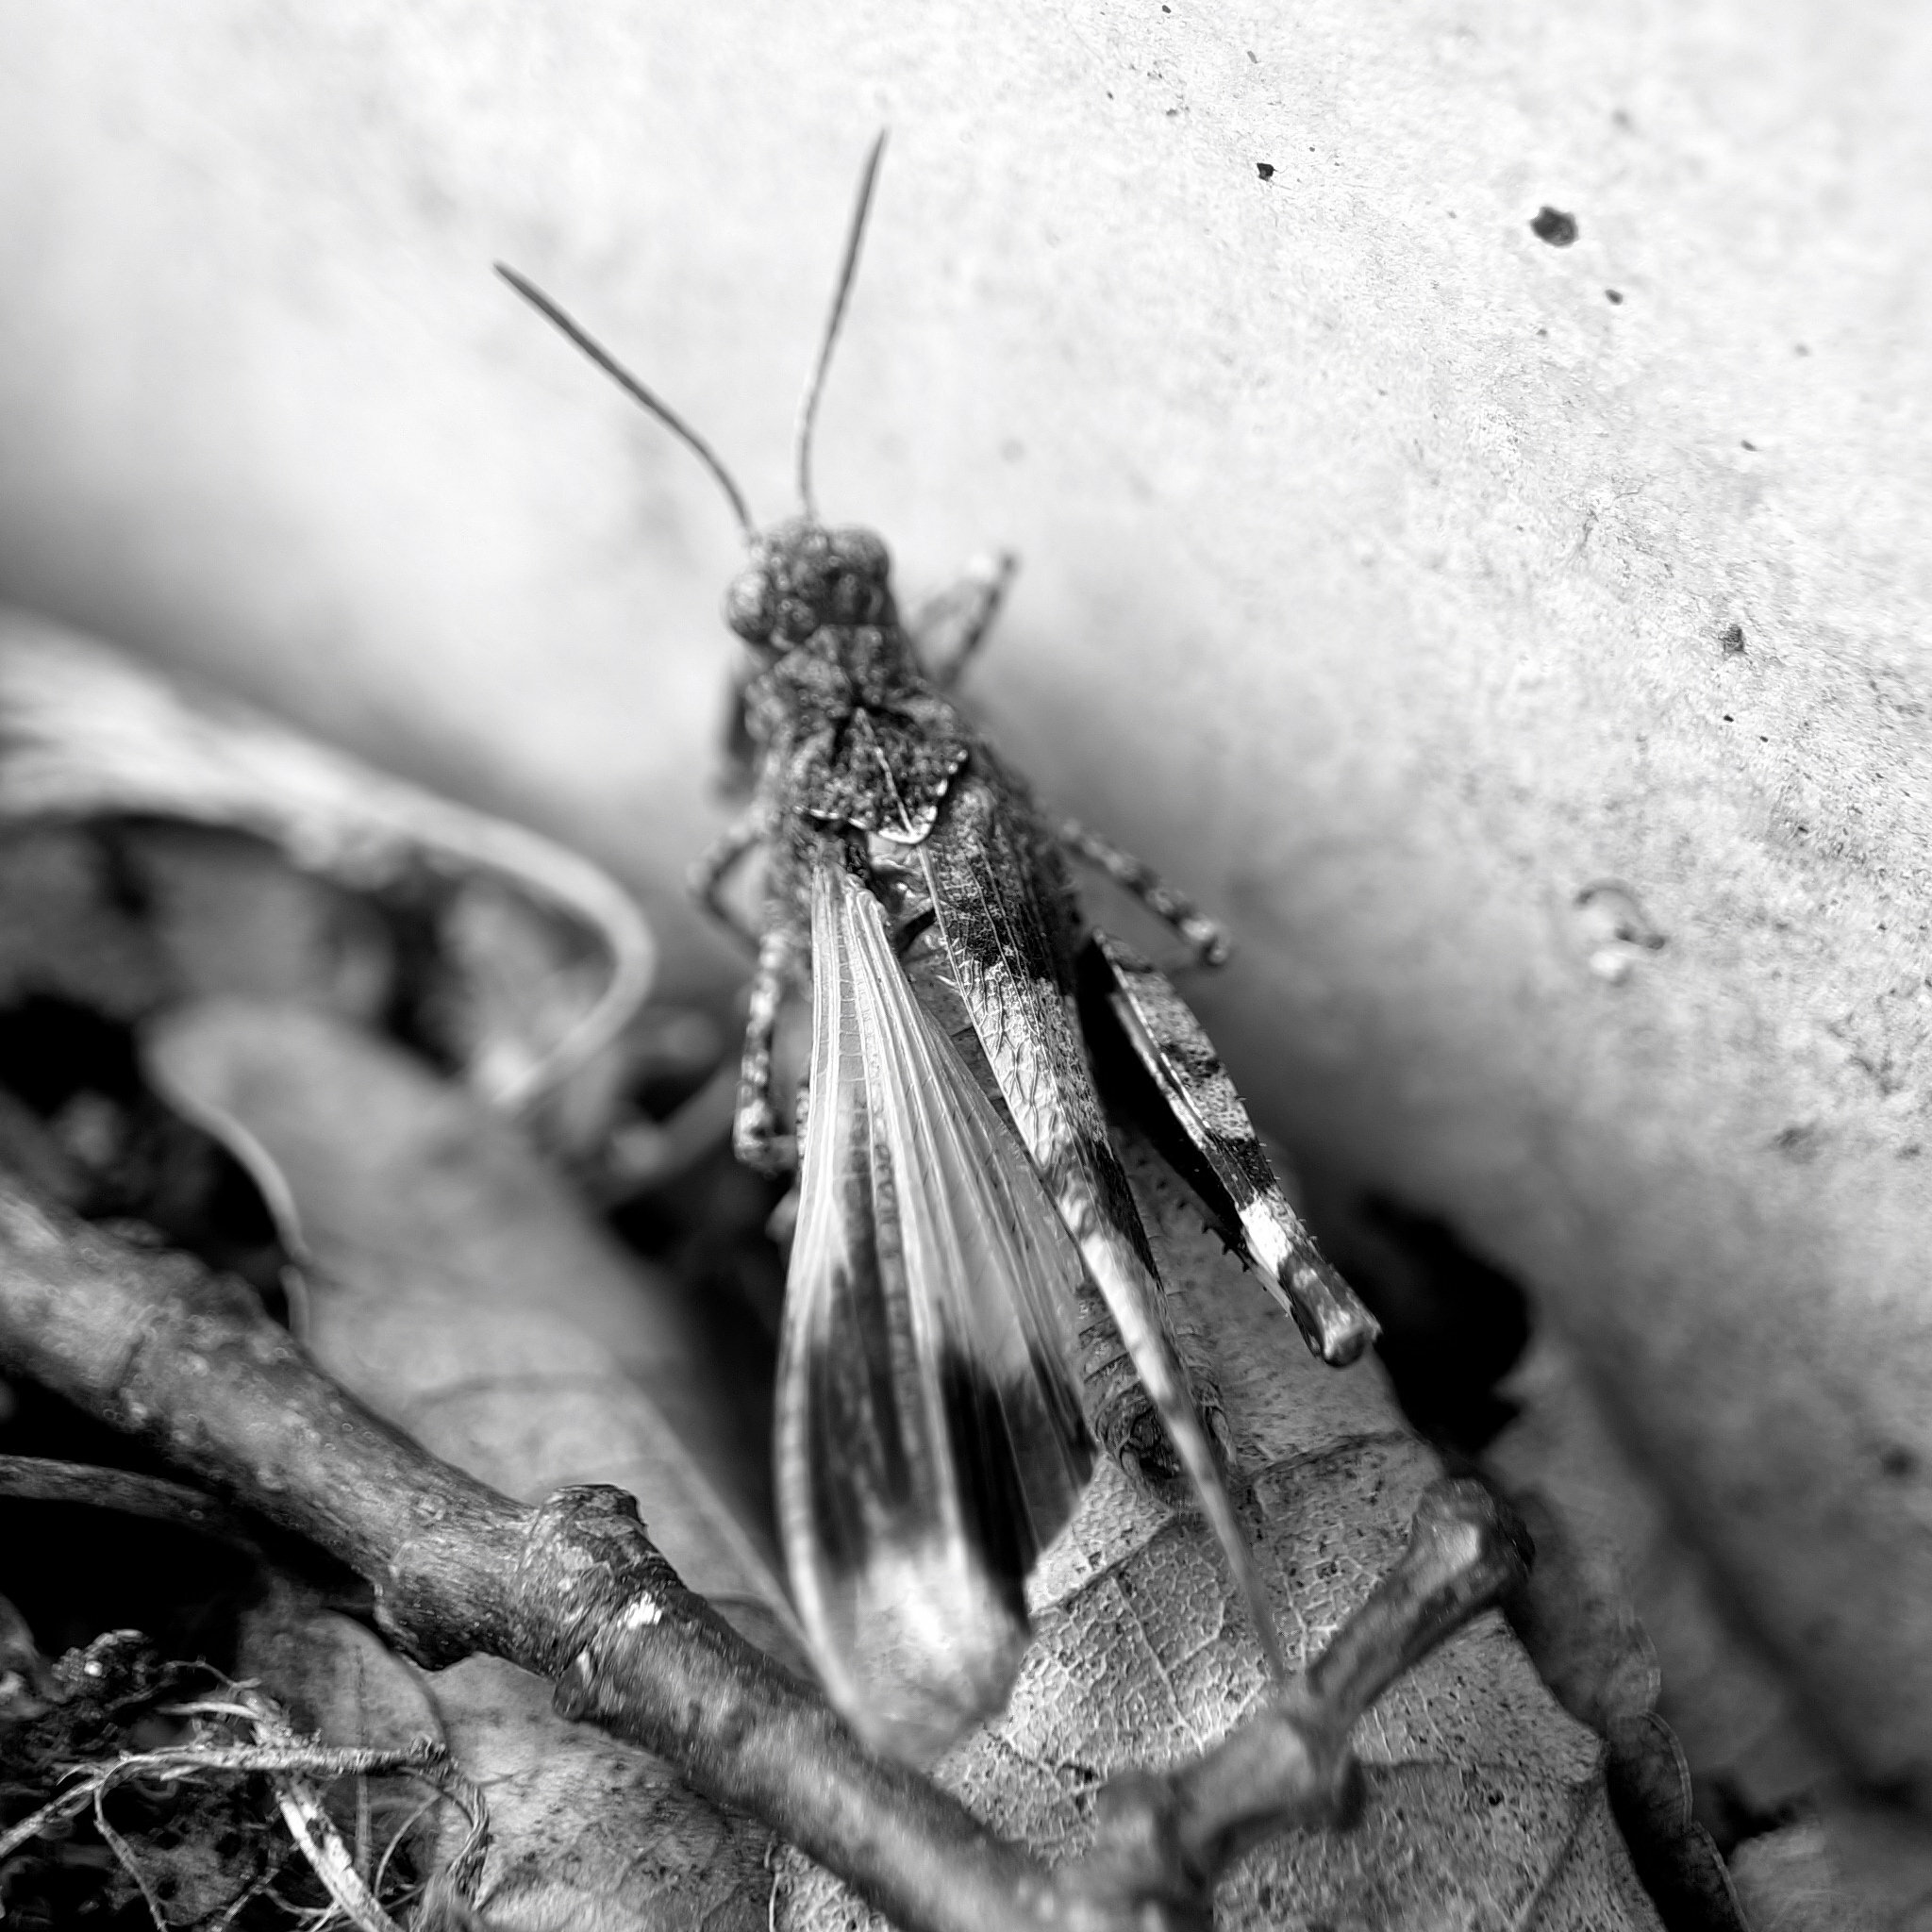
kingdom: Animalia
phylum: Arthropoda
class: Insecta
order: Orthoptera
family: Acrididae
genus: Oedipoda
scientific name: Oedipoda caerulescens
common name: Blue-winged grasshopper
